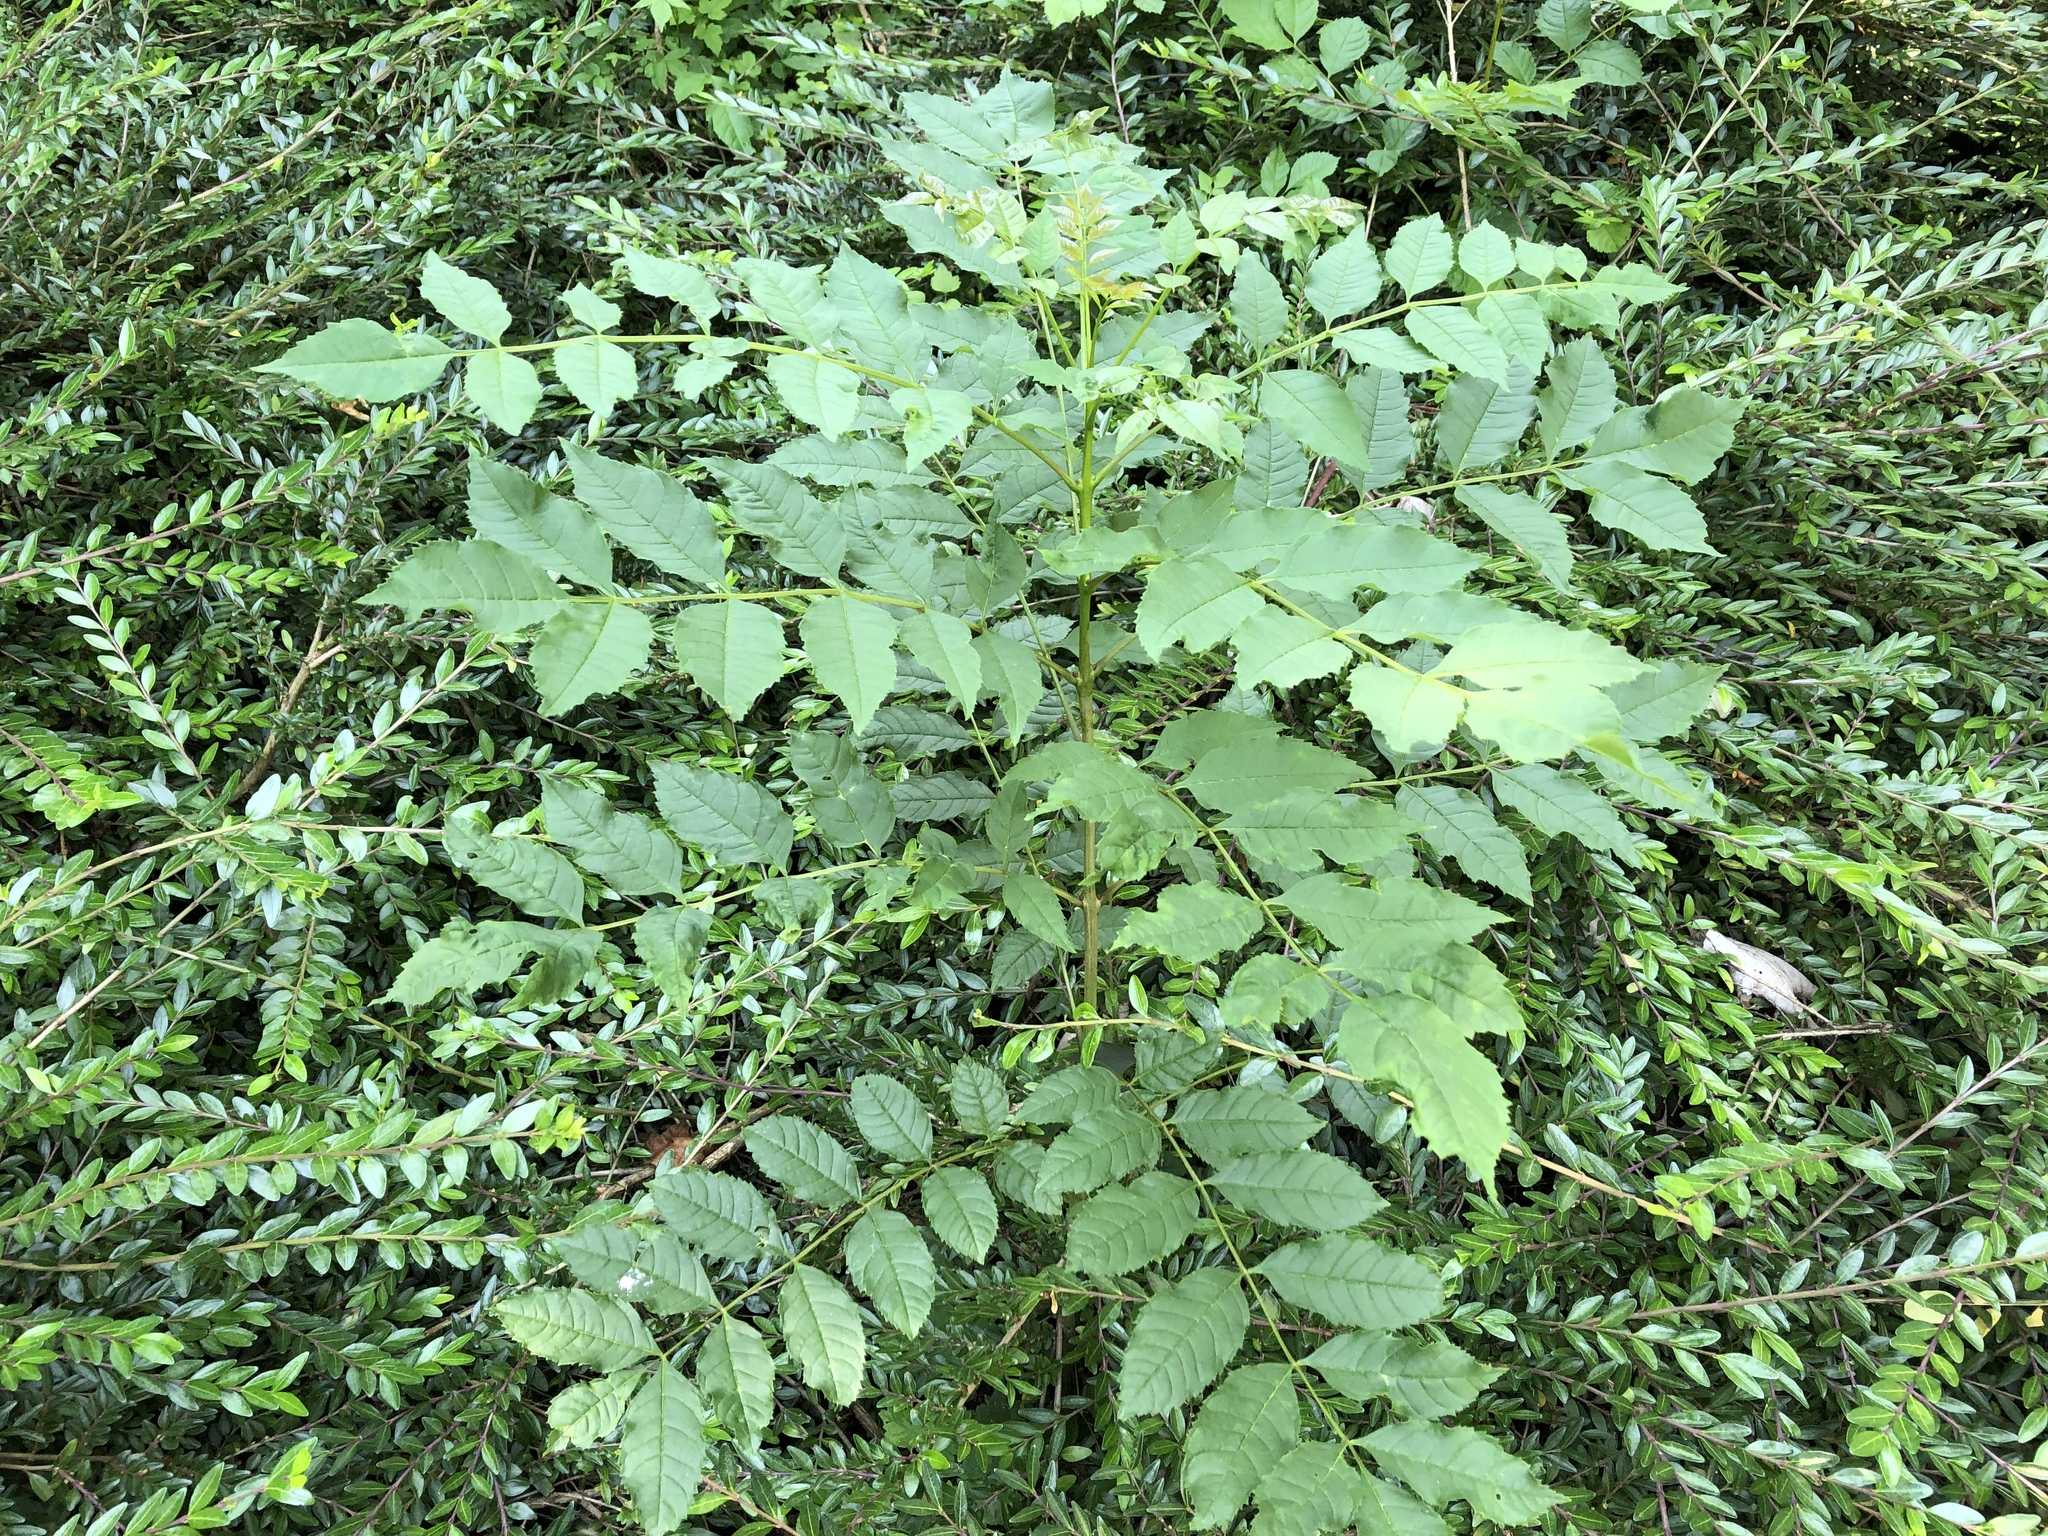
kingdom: Plantae
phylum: Tracheophyta
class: Magnoliopsida
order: Lamiales
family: Oleaceae
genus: Fraxinus
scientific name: Fraxinus excelsior
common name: European ash
